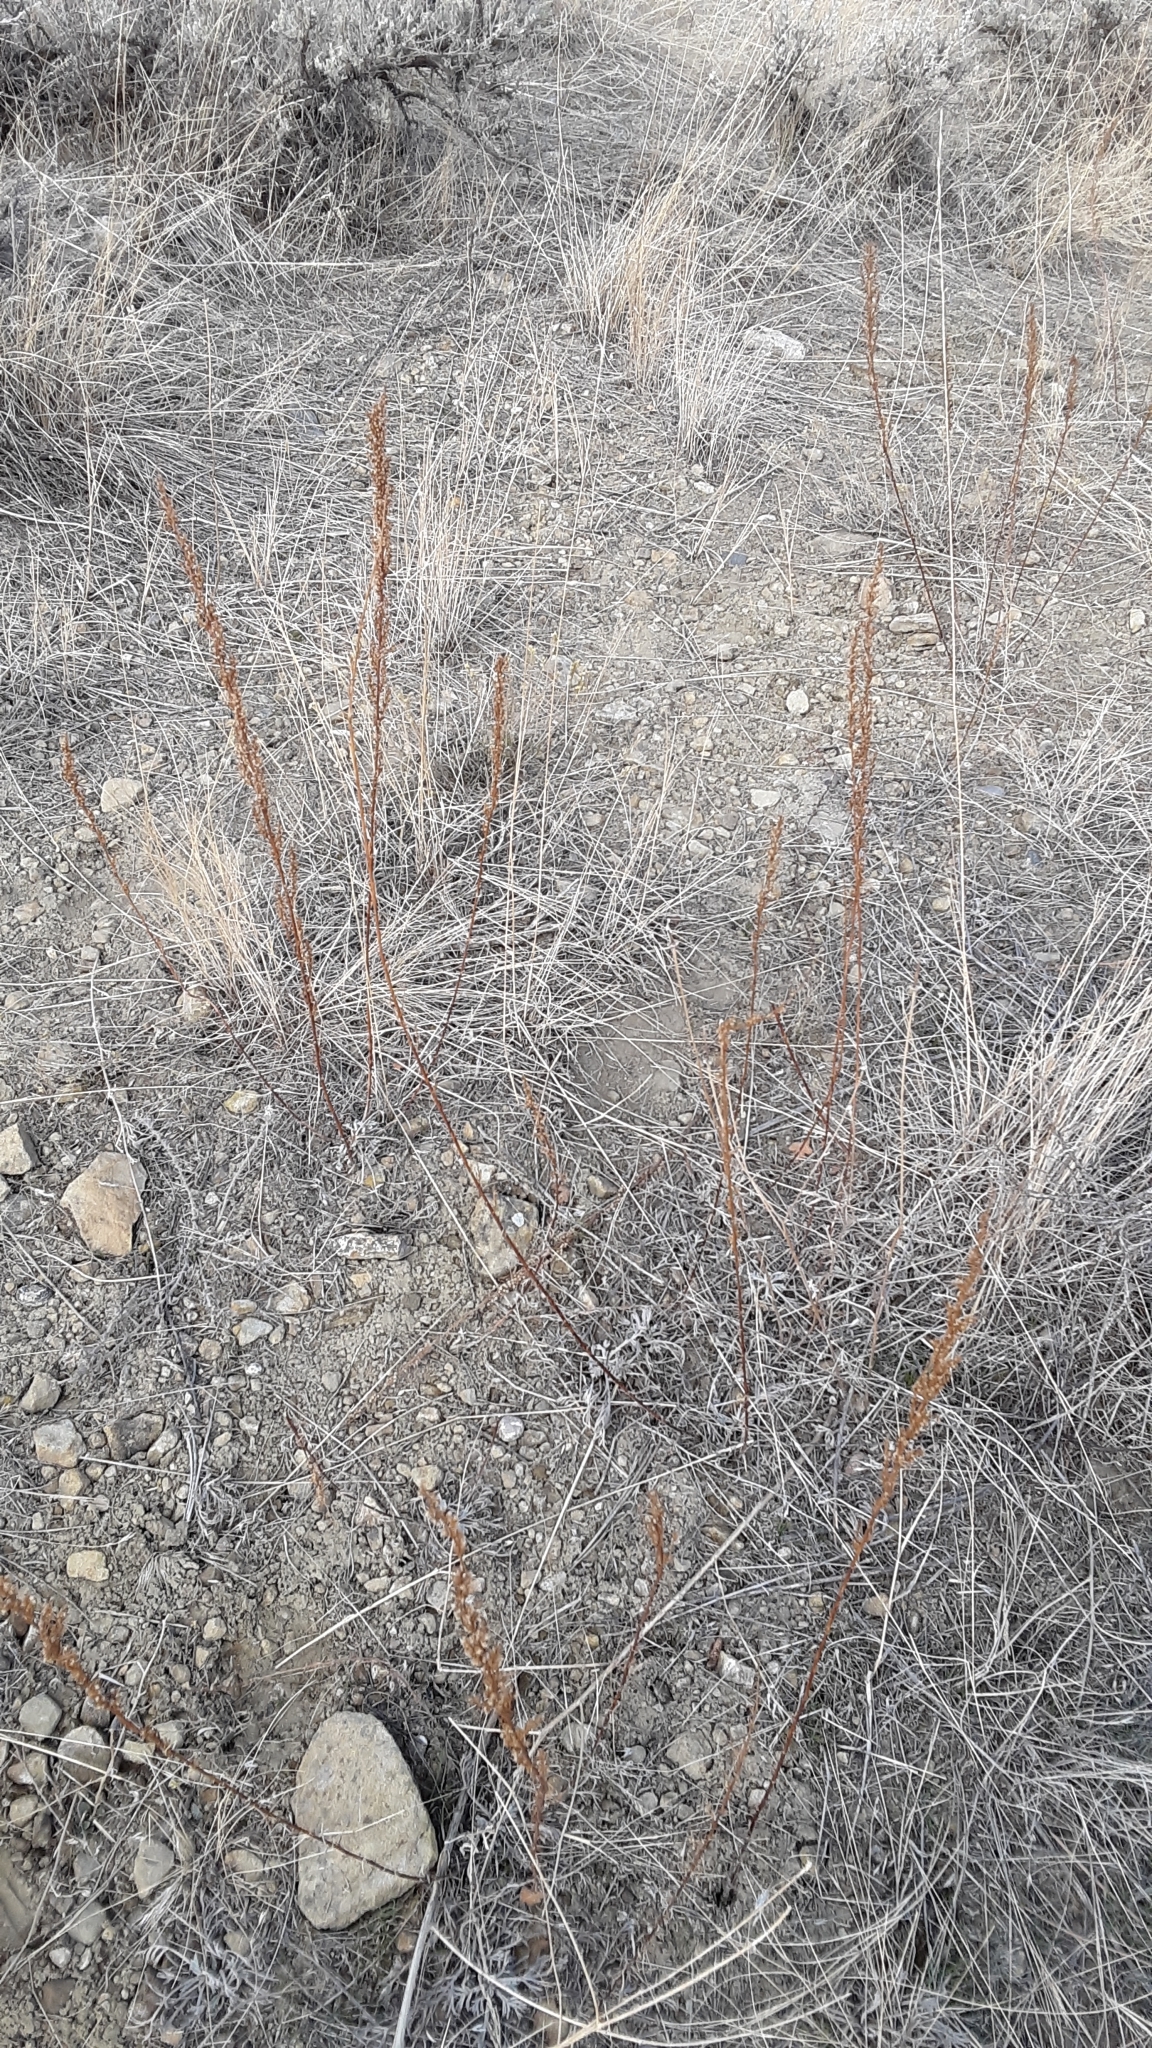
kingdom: Plantae
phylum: Tracheophyta
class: Magnoliopsida
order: Asterales
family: Asteraceae
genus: Artemisia
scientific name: Artemisia campestris
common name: Field wormwood
